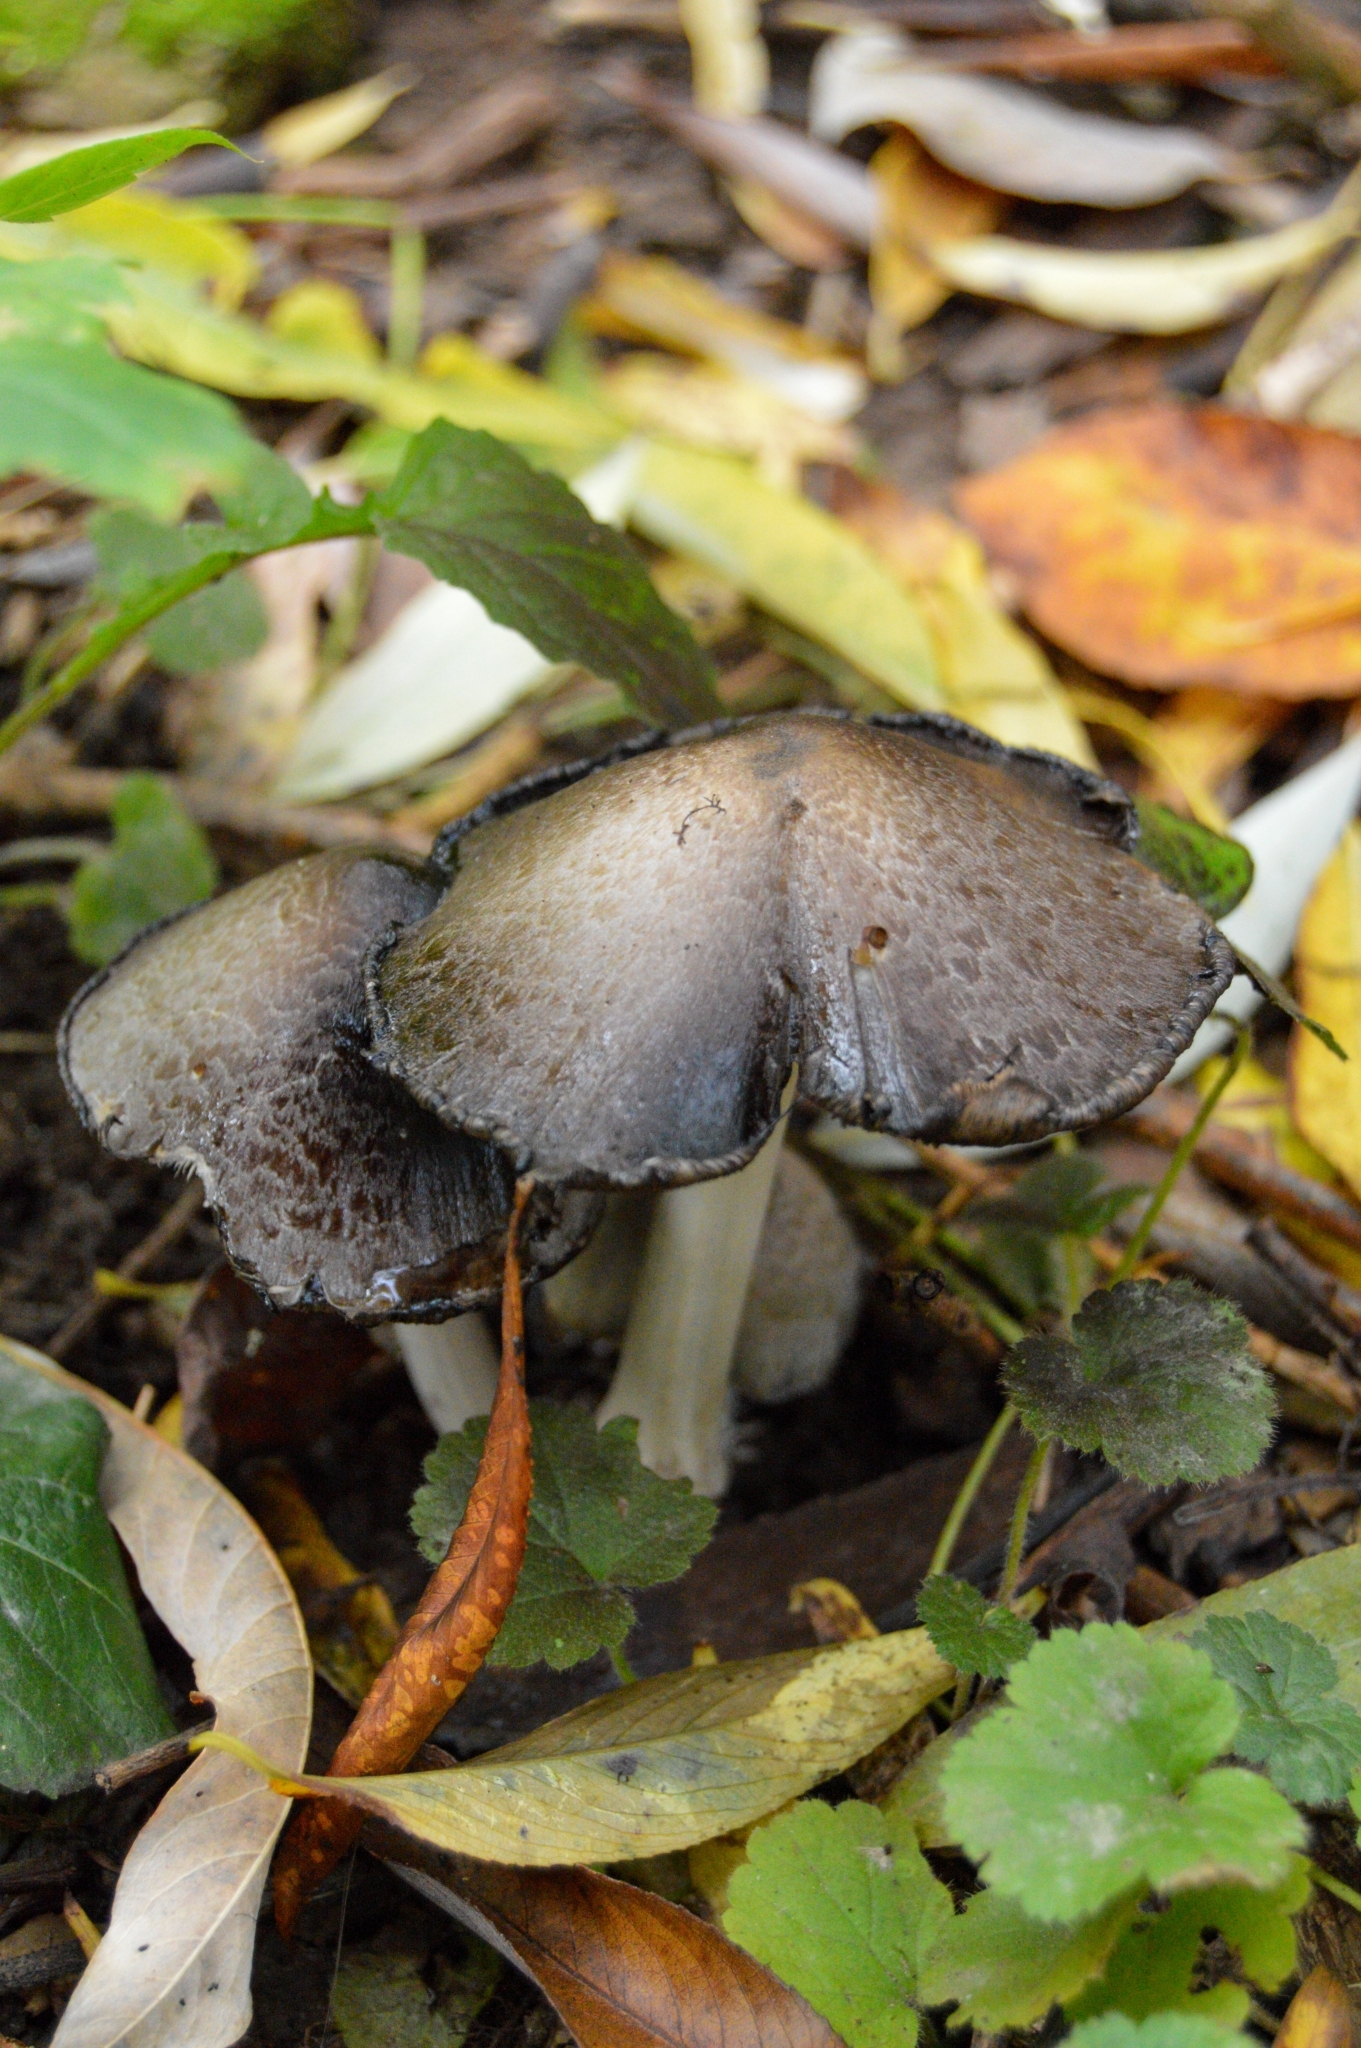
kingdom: Fungi
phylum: Basidiomycota
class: Agaricomycetes
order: Agaricales
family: Psathyrellaceae
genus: Coprinopsis
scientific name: Coprinopsis atramentaria
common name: Common ink-cap
